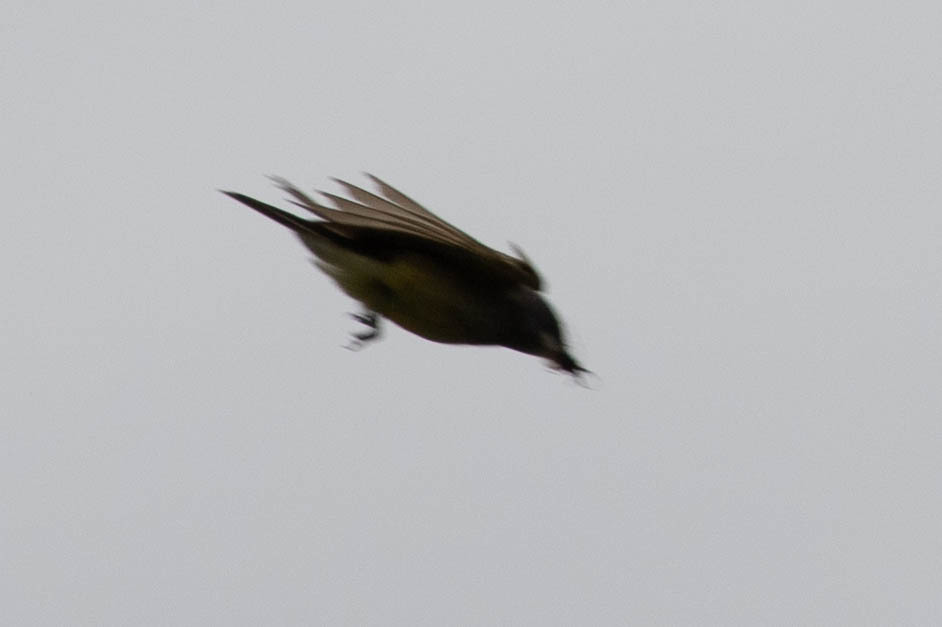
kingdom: Animalia
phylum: Chordata
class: Aves
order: Passeriformes
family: Tyrannidae
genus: Tyrannus
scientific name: Tyrannus
